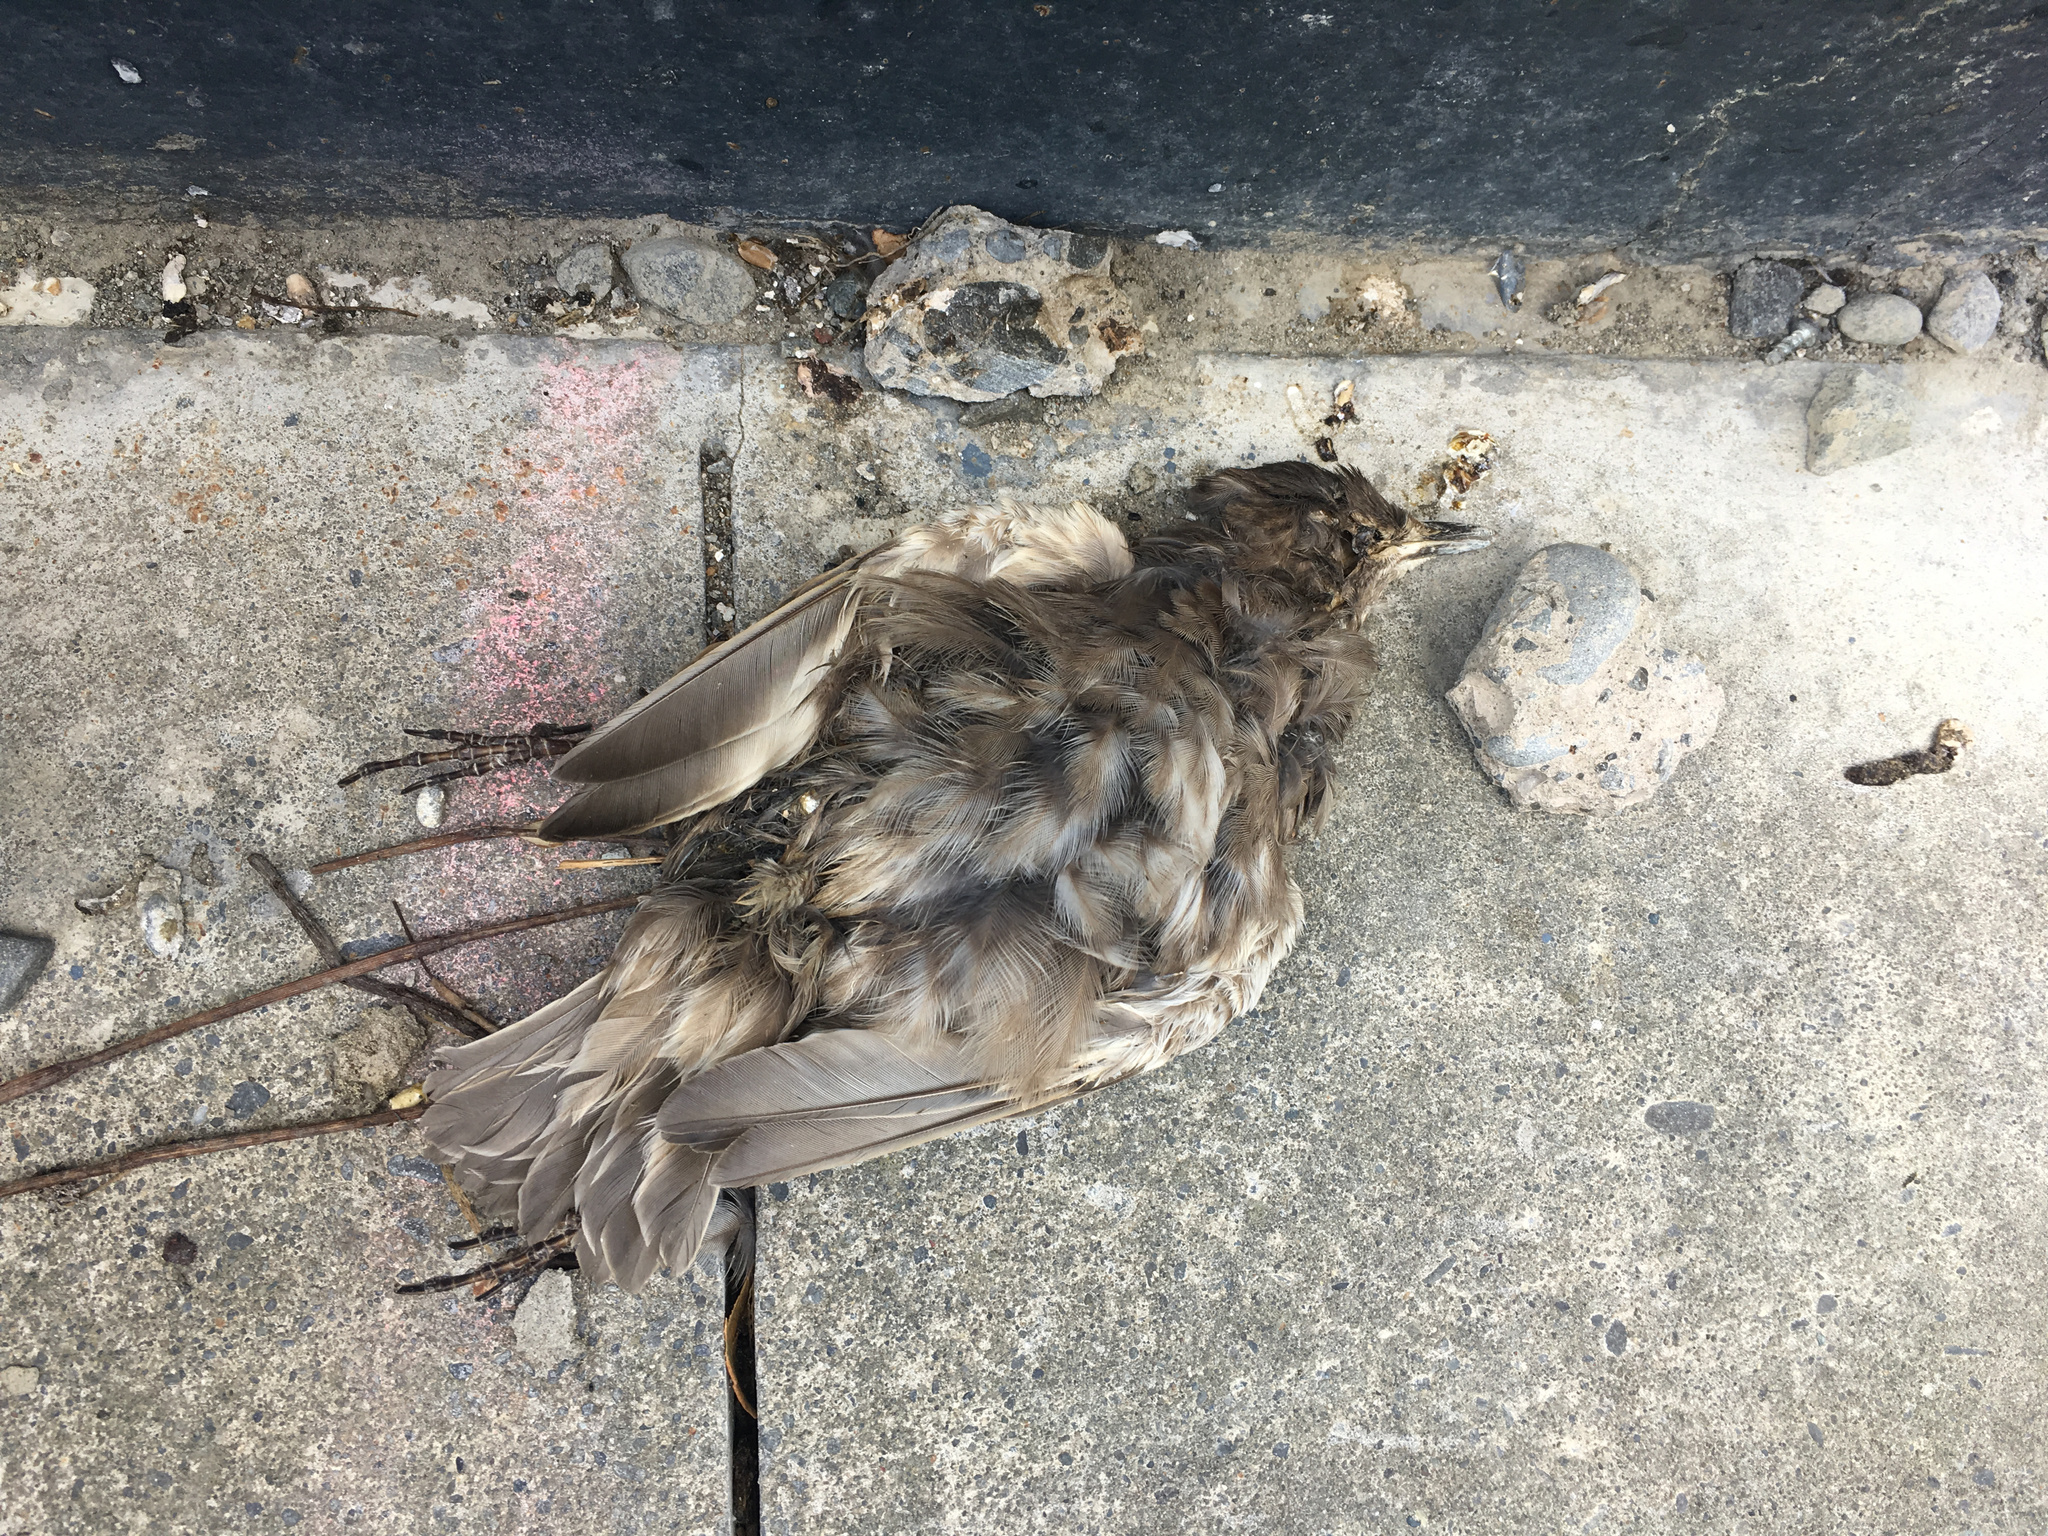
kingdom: Animalia
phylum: Chordata
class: Aves
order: Passeriformes
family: Sturnidae
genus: Sturnus
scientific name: Sturnus vulgaris
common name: Common starling
